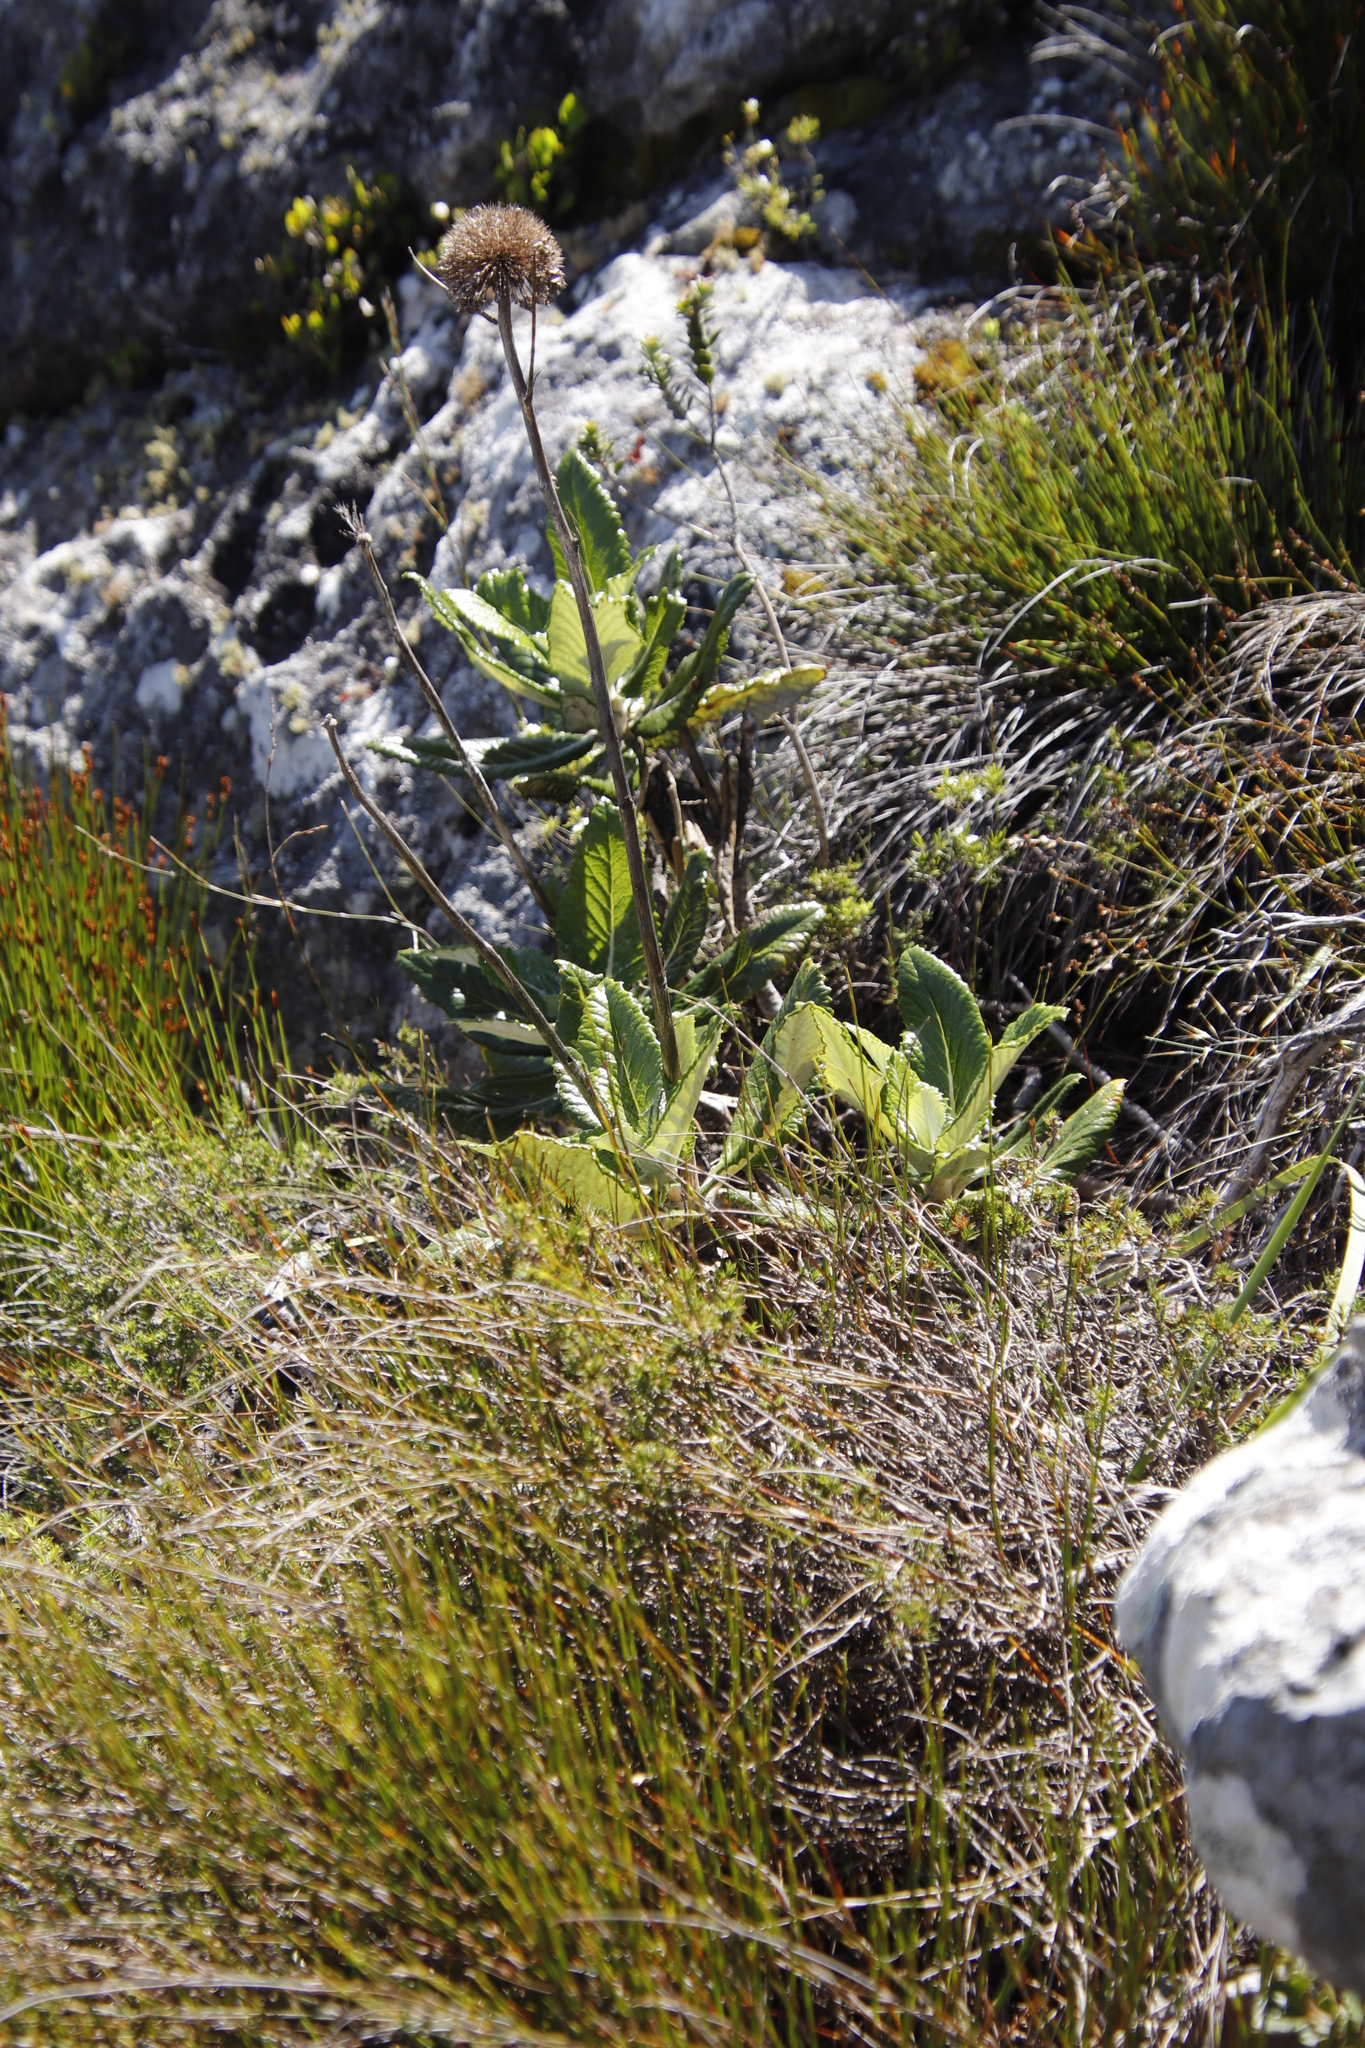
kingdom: Plantae
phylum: Tracheophyta
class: Magnoliopsida
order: Apiales
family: Apiaceae
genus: Hermas
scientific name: Hermas villosa
